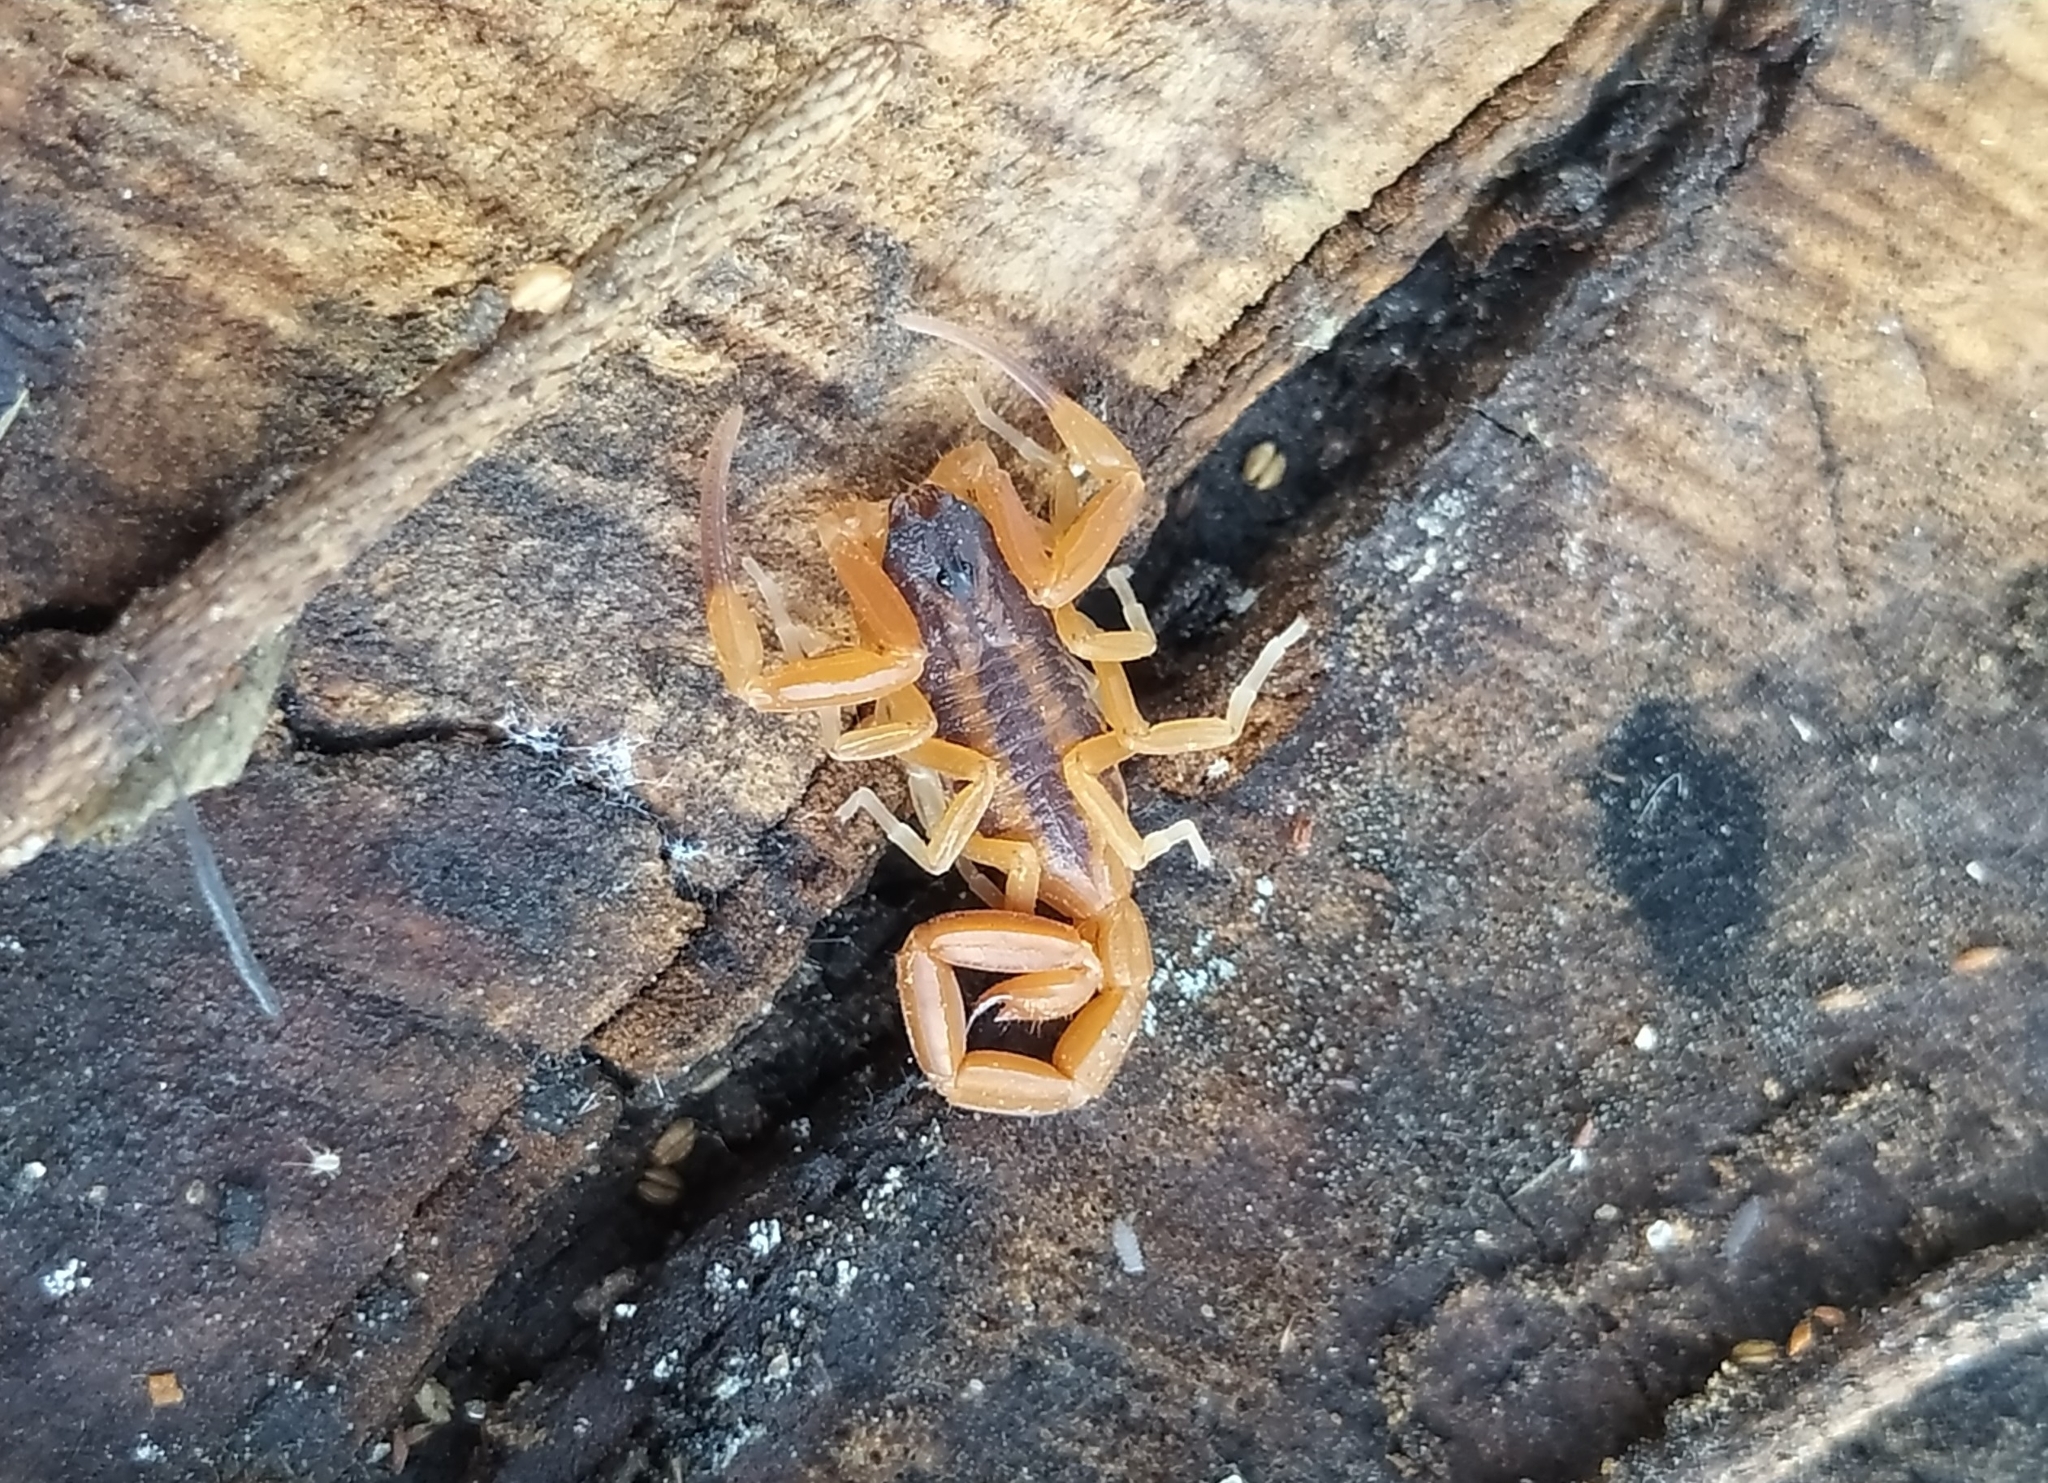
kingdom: Animalia
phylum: Arthropoda
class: Arachnida
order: Scorpiones
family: Buthidae
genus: Tityus
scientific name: Tityus carrilloi
